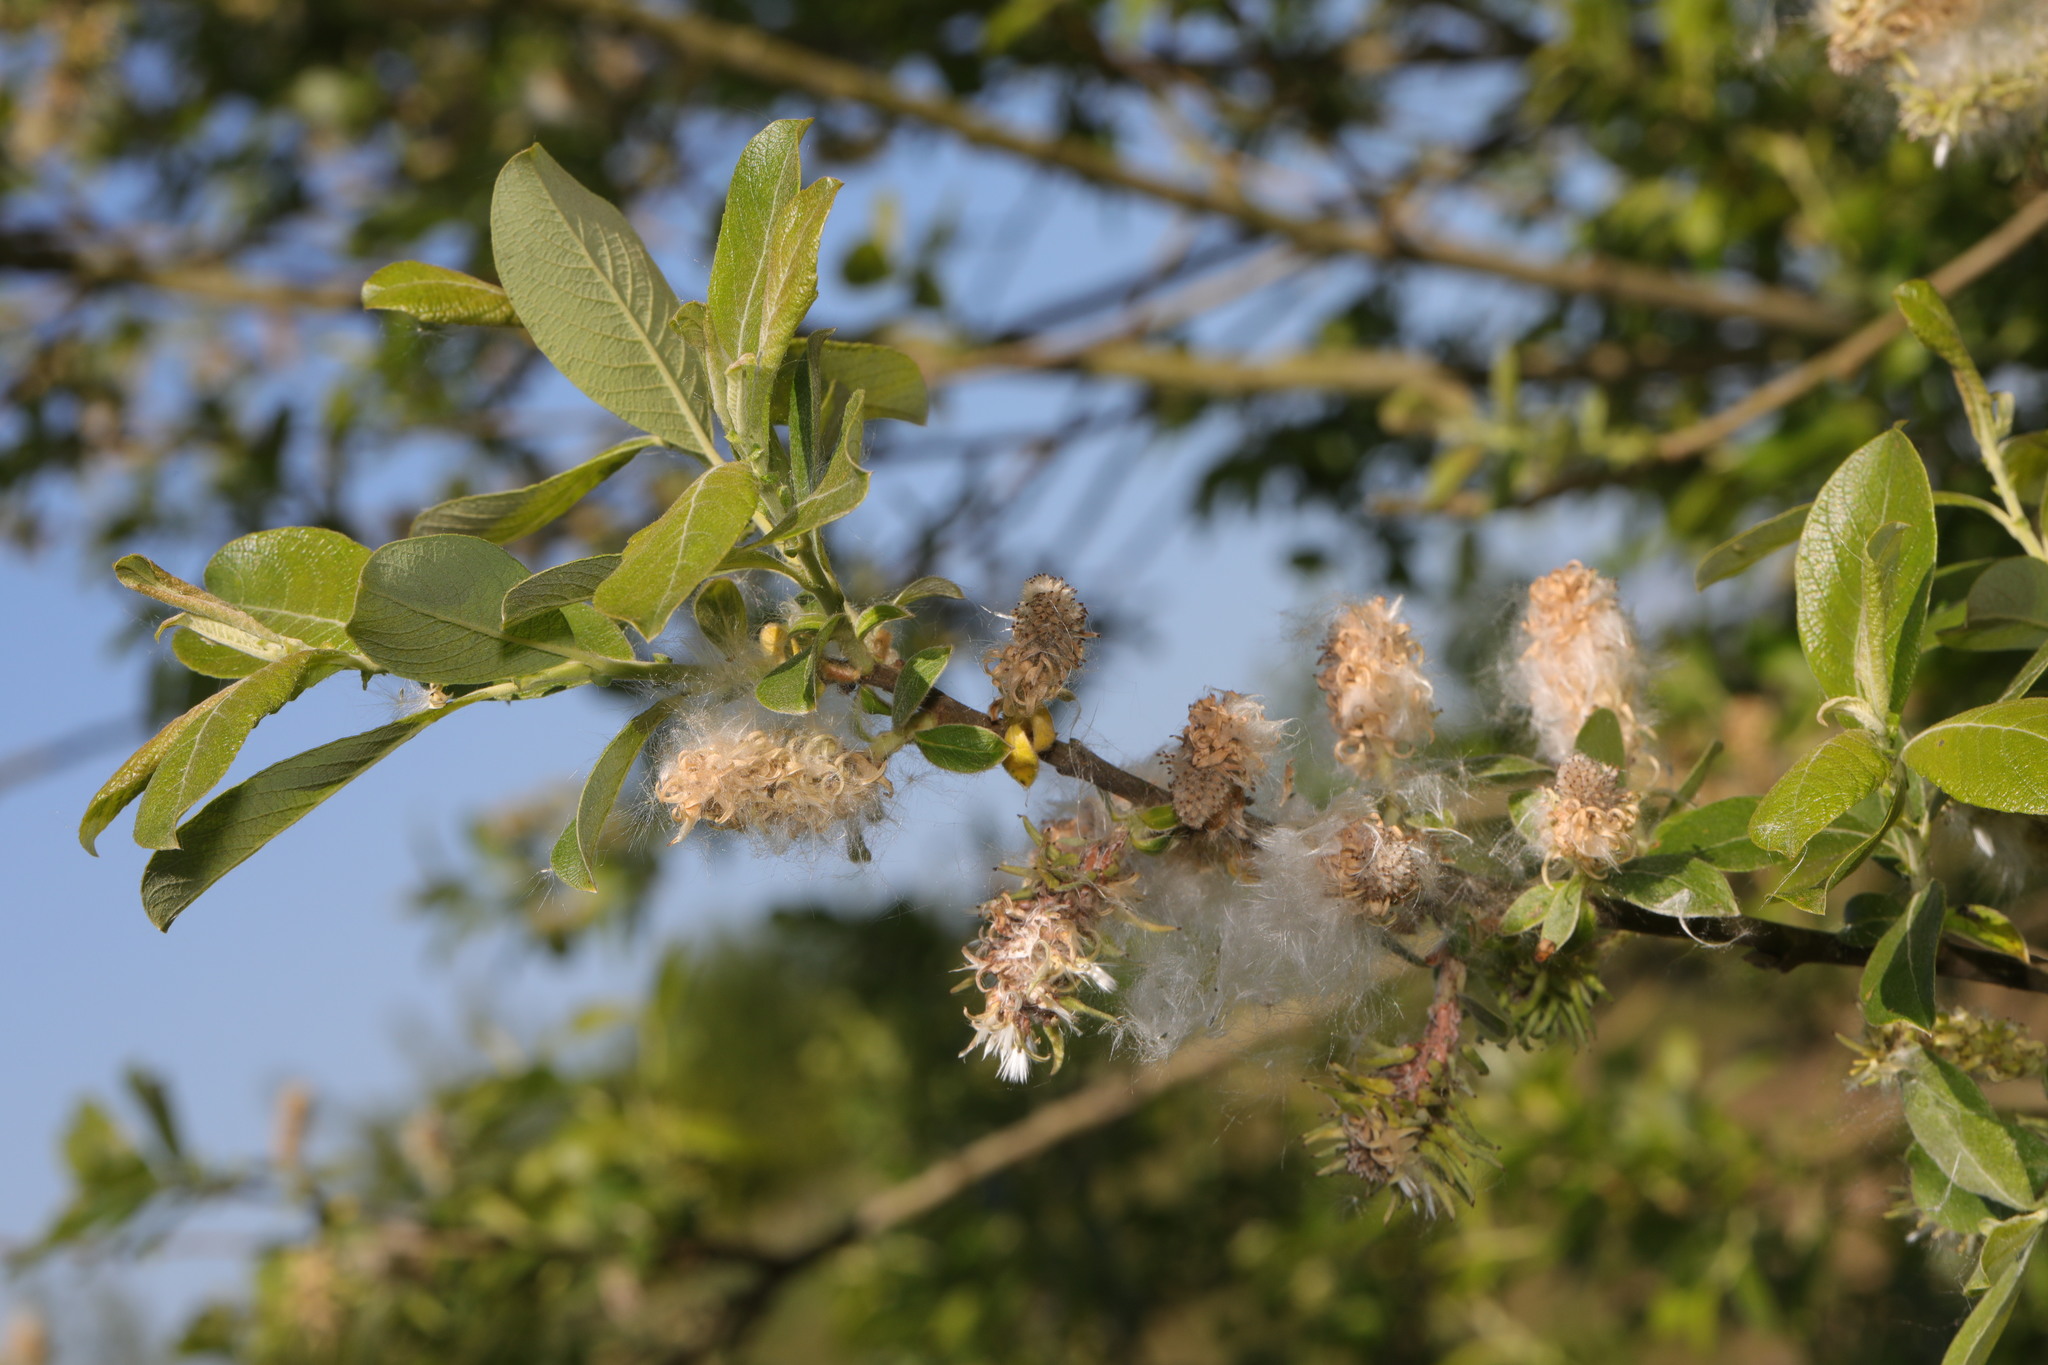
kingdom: Plantae
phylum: Tracheophyta
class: Magnoliopsida
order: Malpighiales
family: Salicaceae
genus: Salix
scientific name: Salix cinerea
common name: Common sallow
